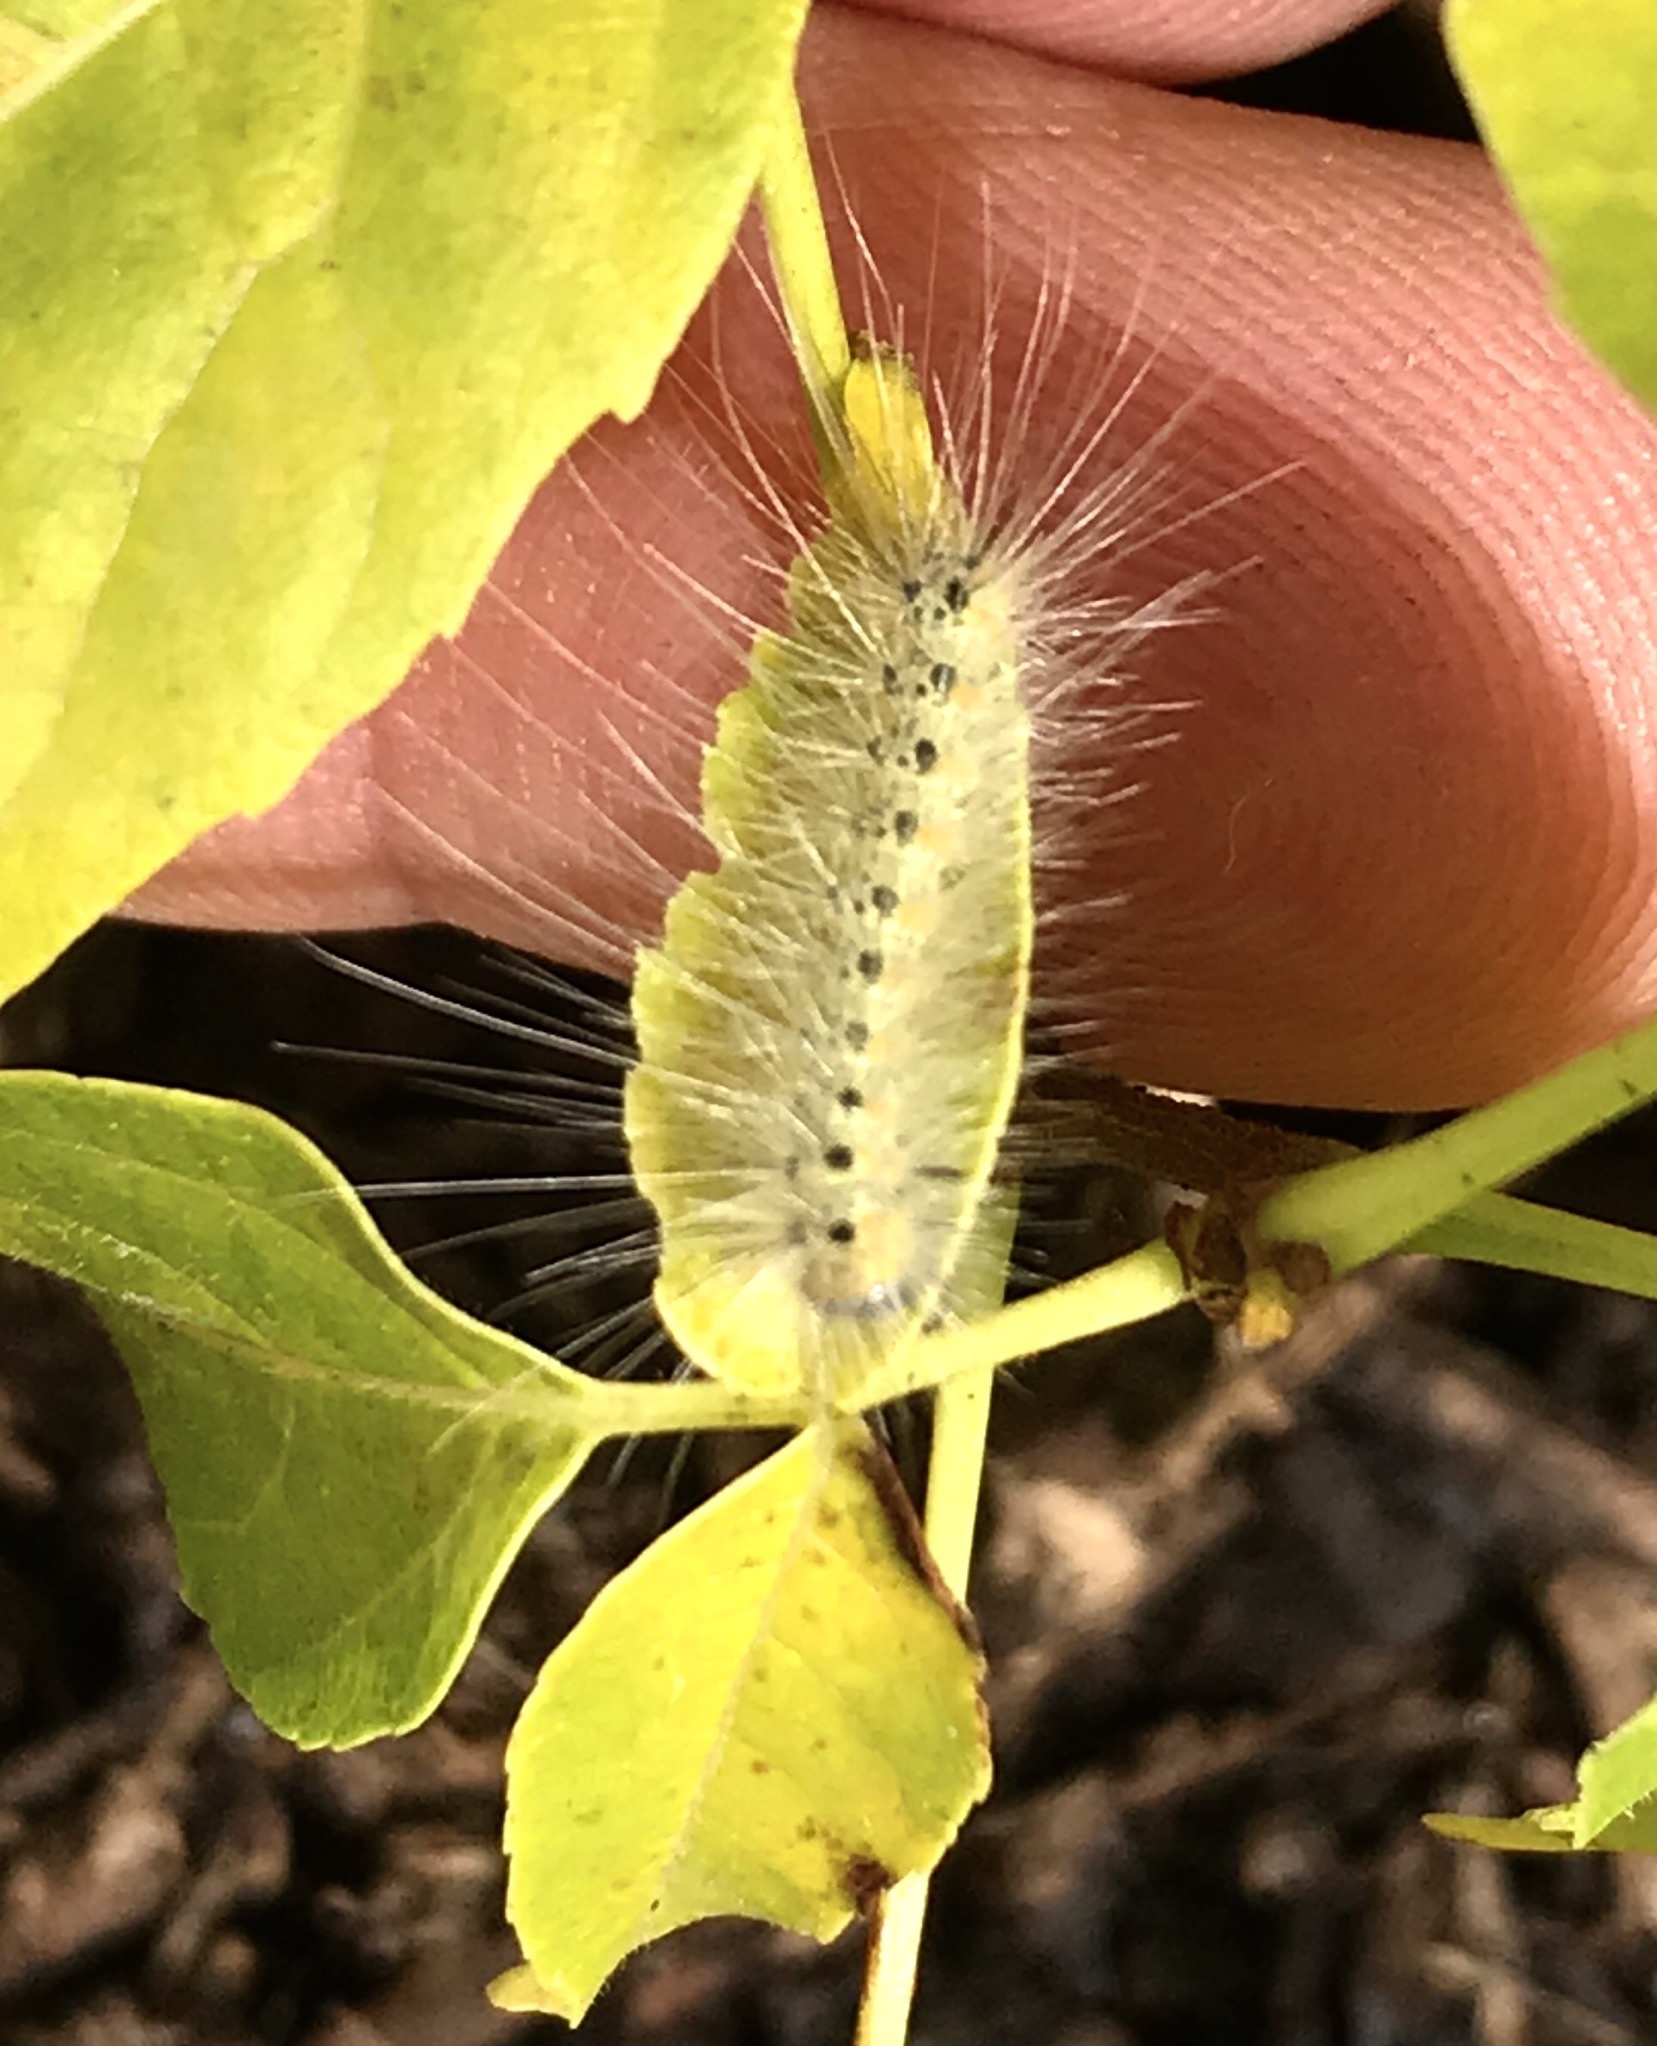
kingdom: Animalia
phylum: Arthropoda
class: Insecta
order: Lepidoptera
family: Erebidae
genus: Hyphantria
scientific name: Hyphantria cunea
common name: American white moth
